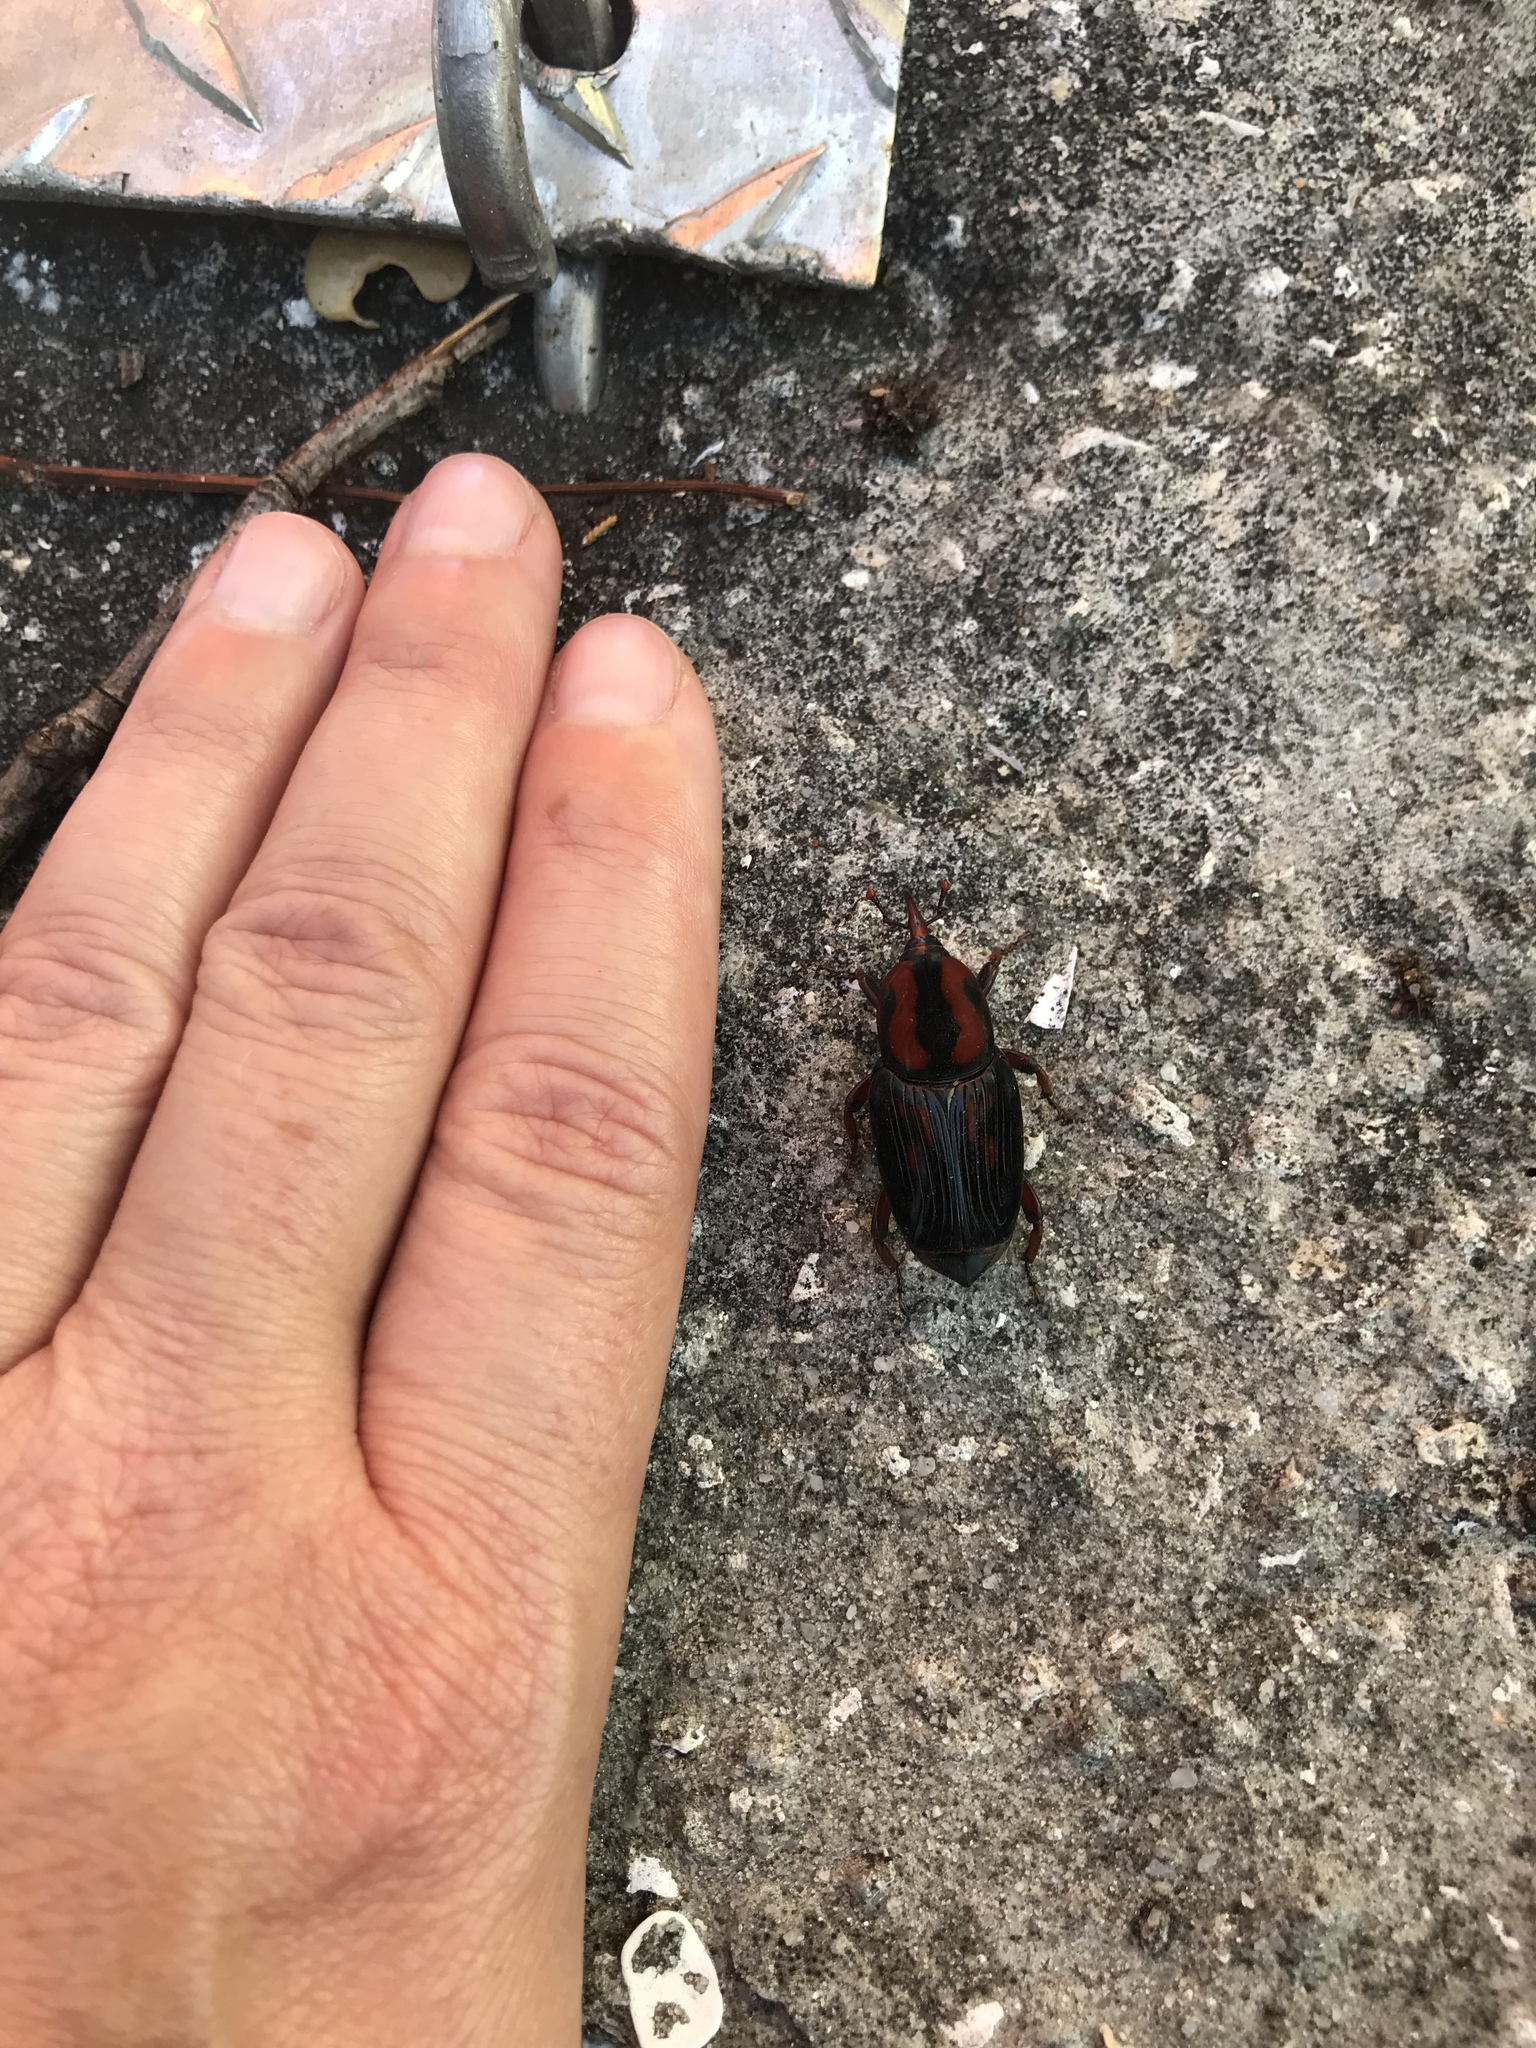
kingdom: Animalia
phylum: Arthropoda
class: Insecta
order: Coleoptera
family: Dryophthoridae
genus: Rhynchophorus
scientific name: Rhynchophorus cruentatus
